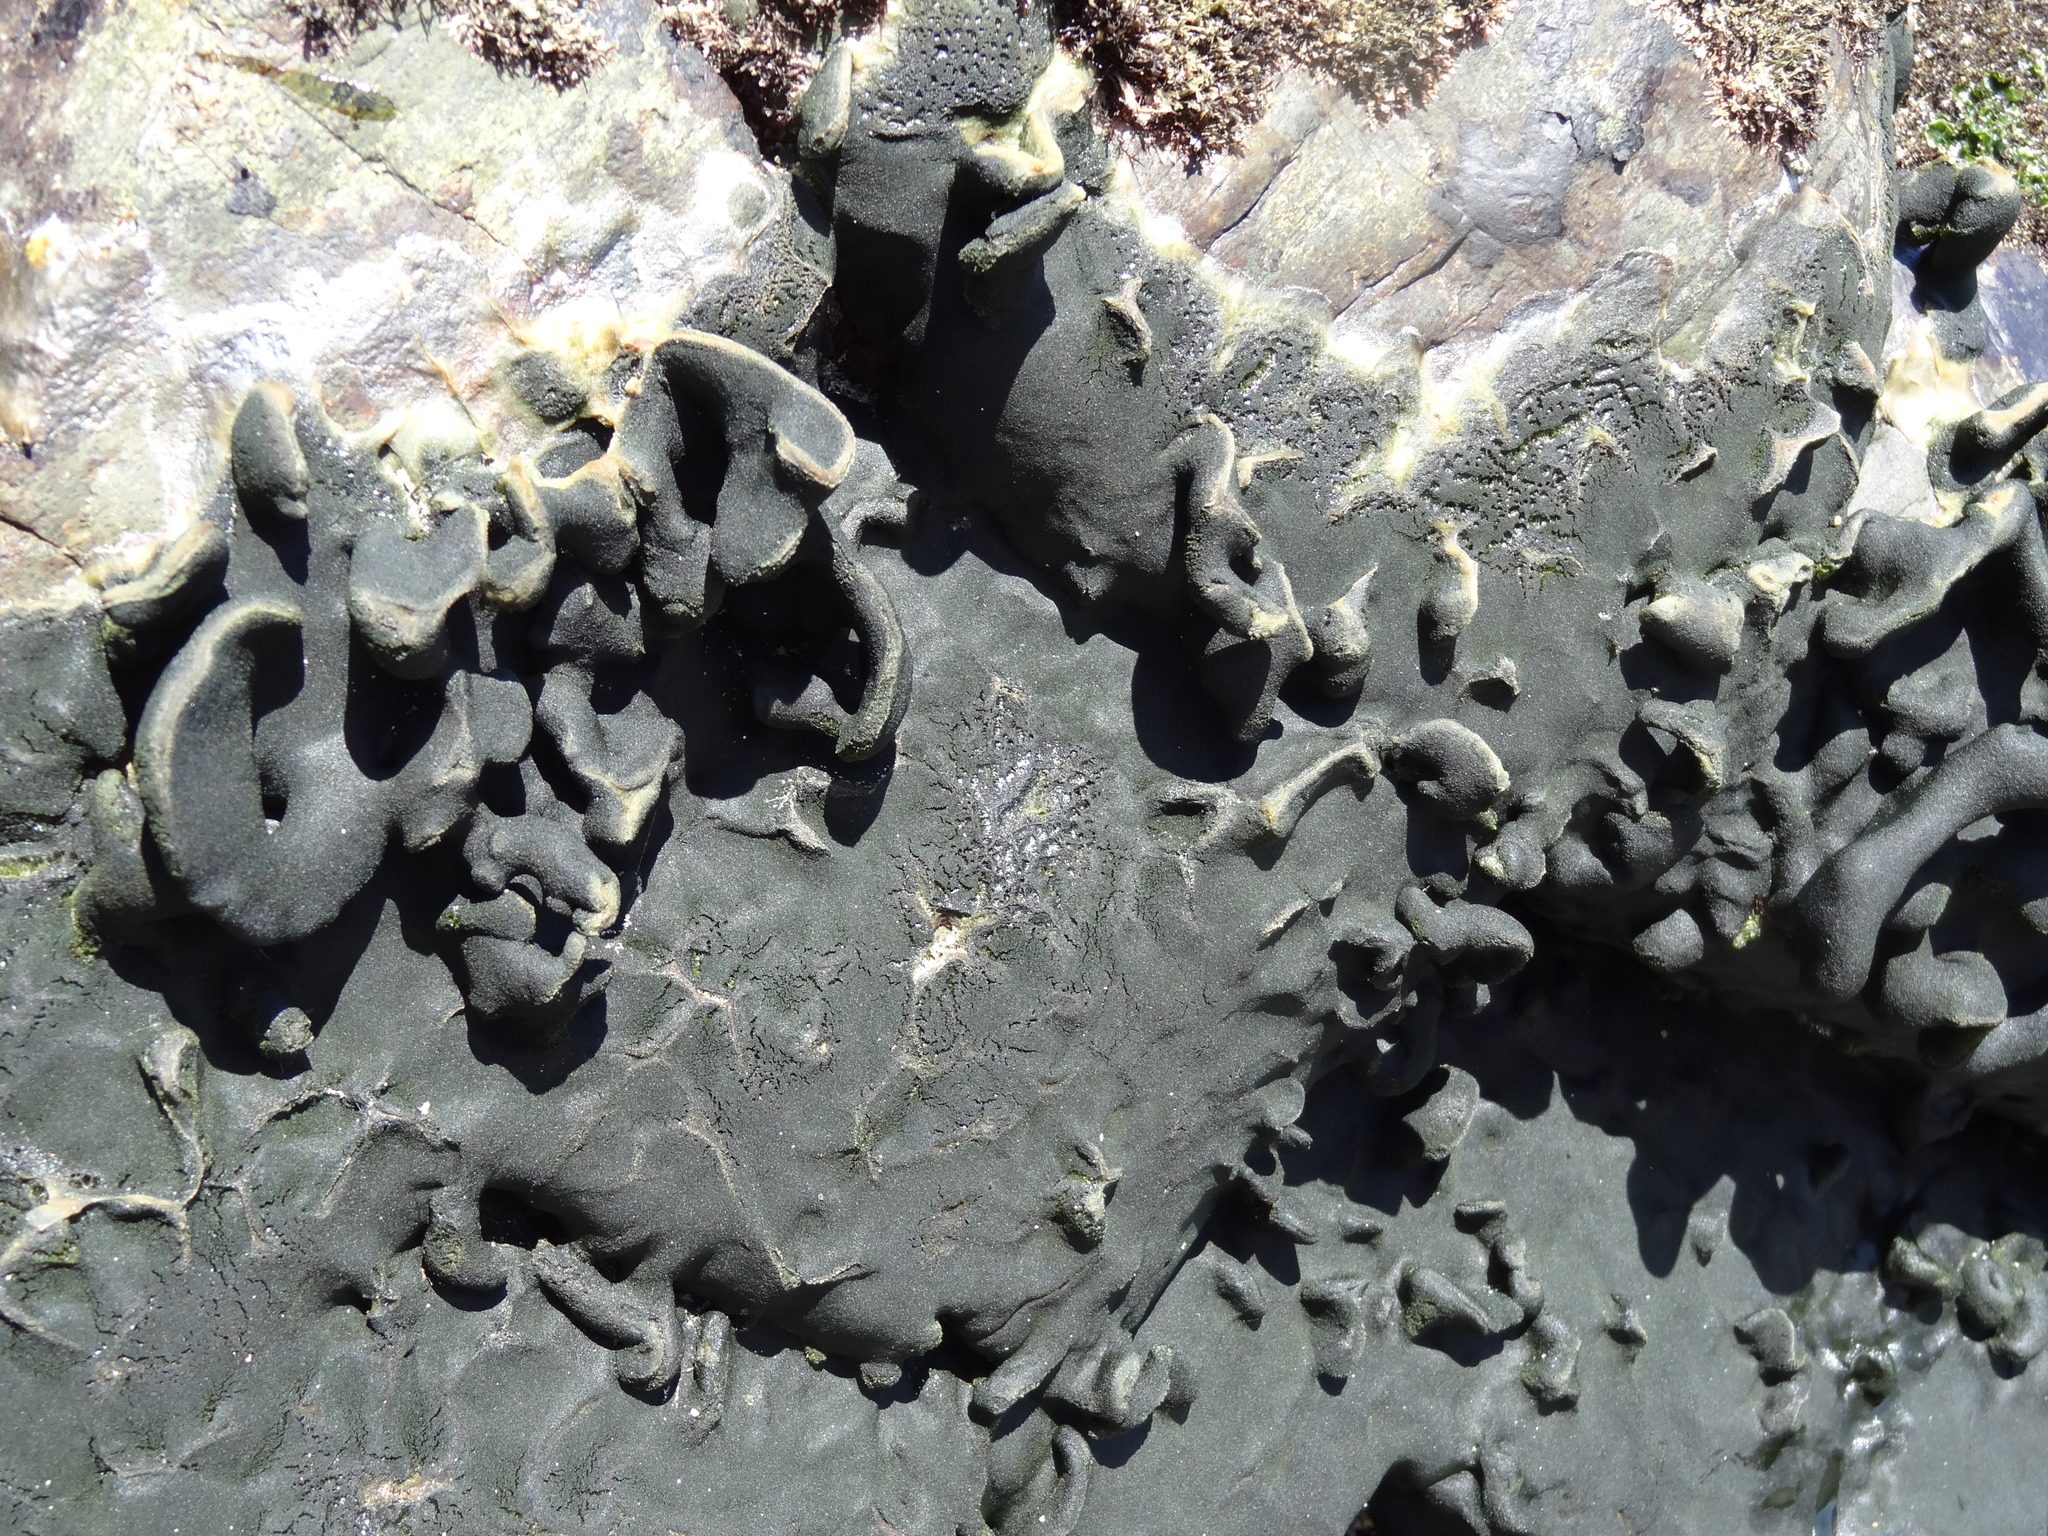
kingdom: Plantae
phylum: Chlorophyta
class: Ulvophyceae
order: Bryopsidales
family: Codiaceae
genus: Codium
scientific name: Codium
